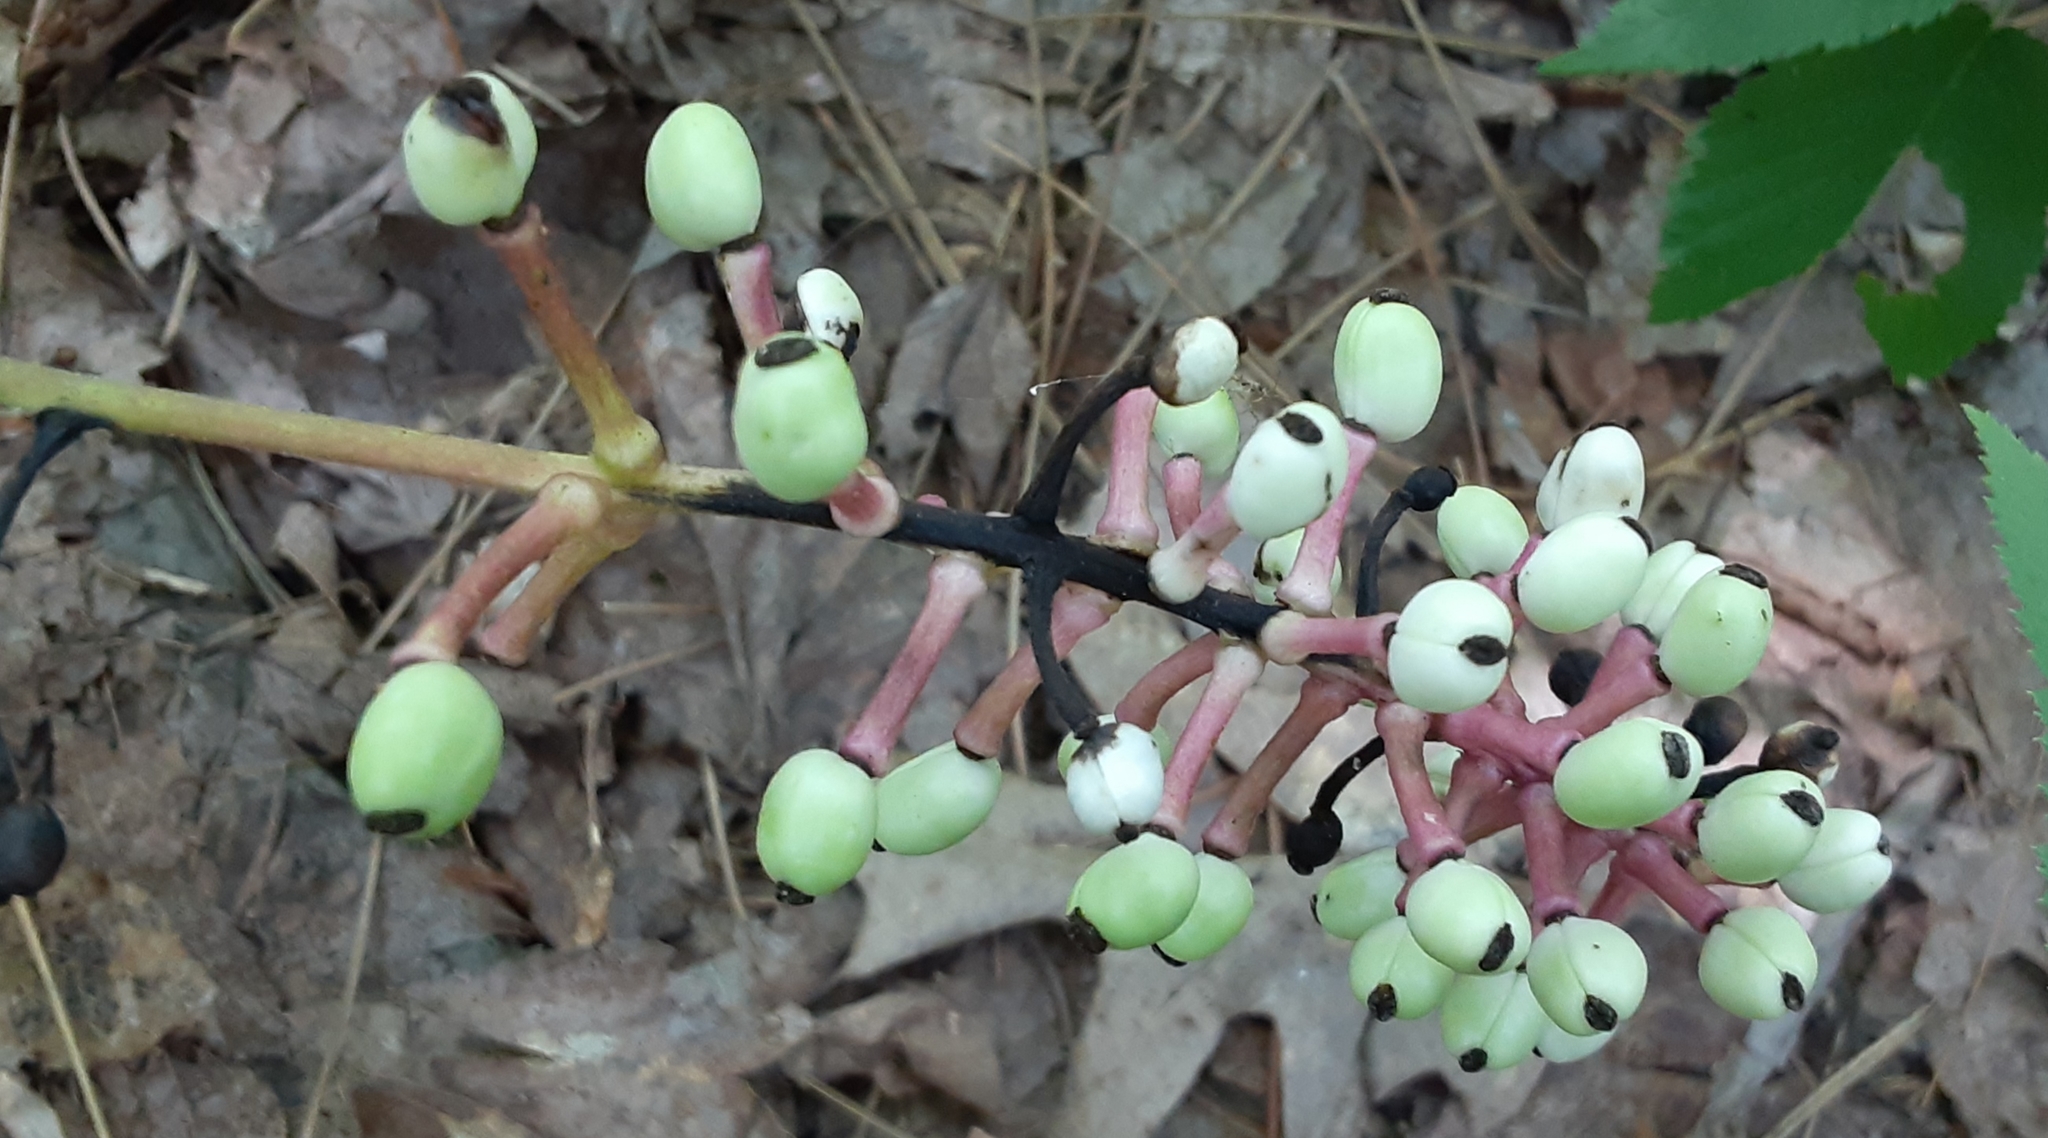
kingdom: Plantae
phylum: Tracheophyta
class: Magnoliopsida
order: Ranunculales
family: Ranunculaceae
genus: Actaea
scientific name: Actaea pachypoda
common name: Doll's-eyes
